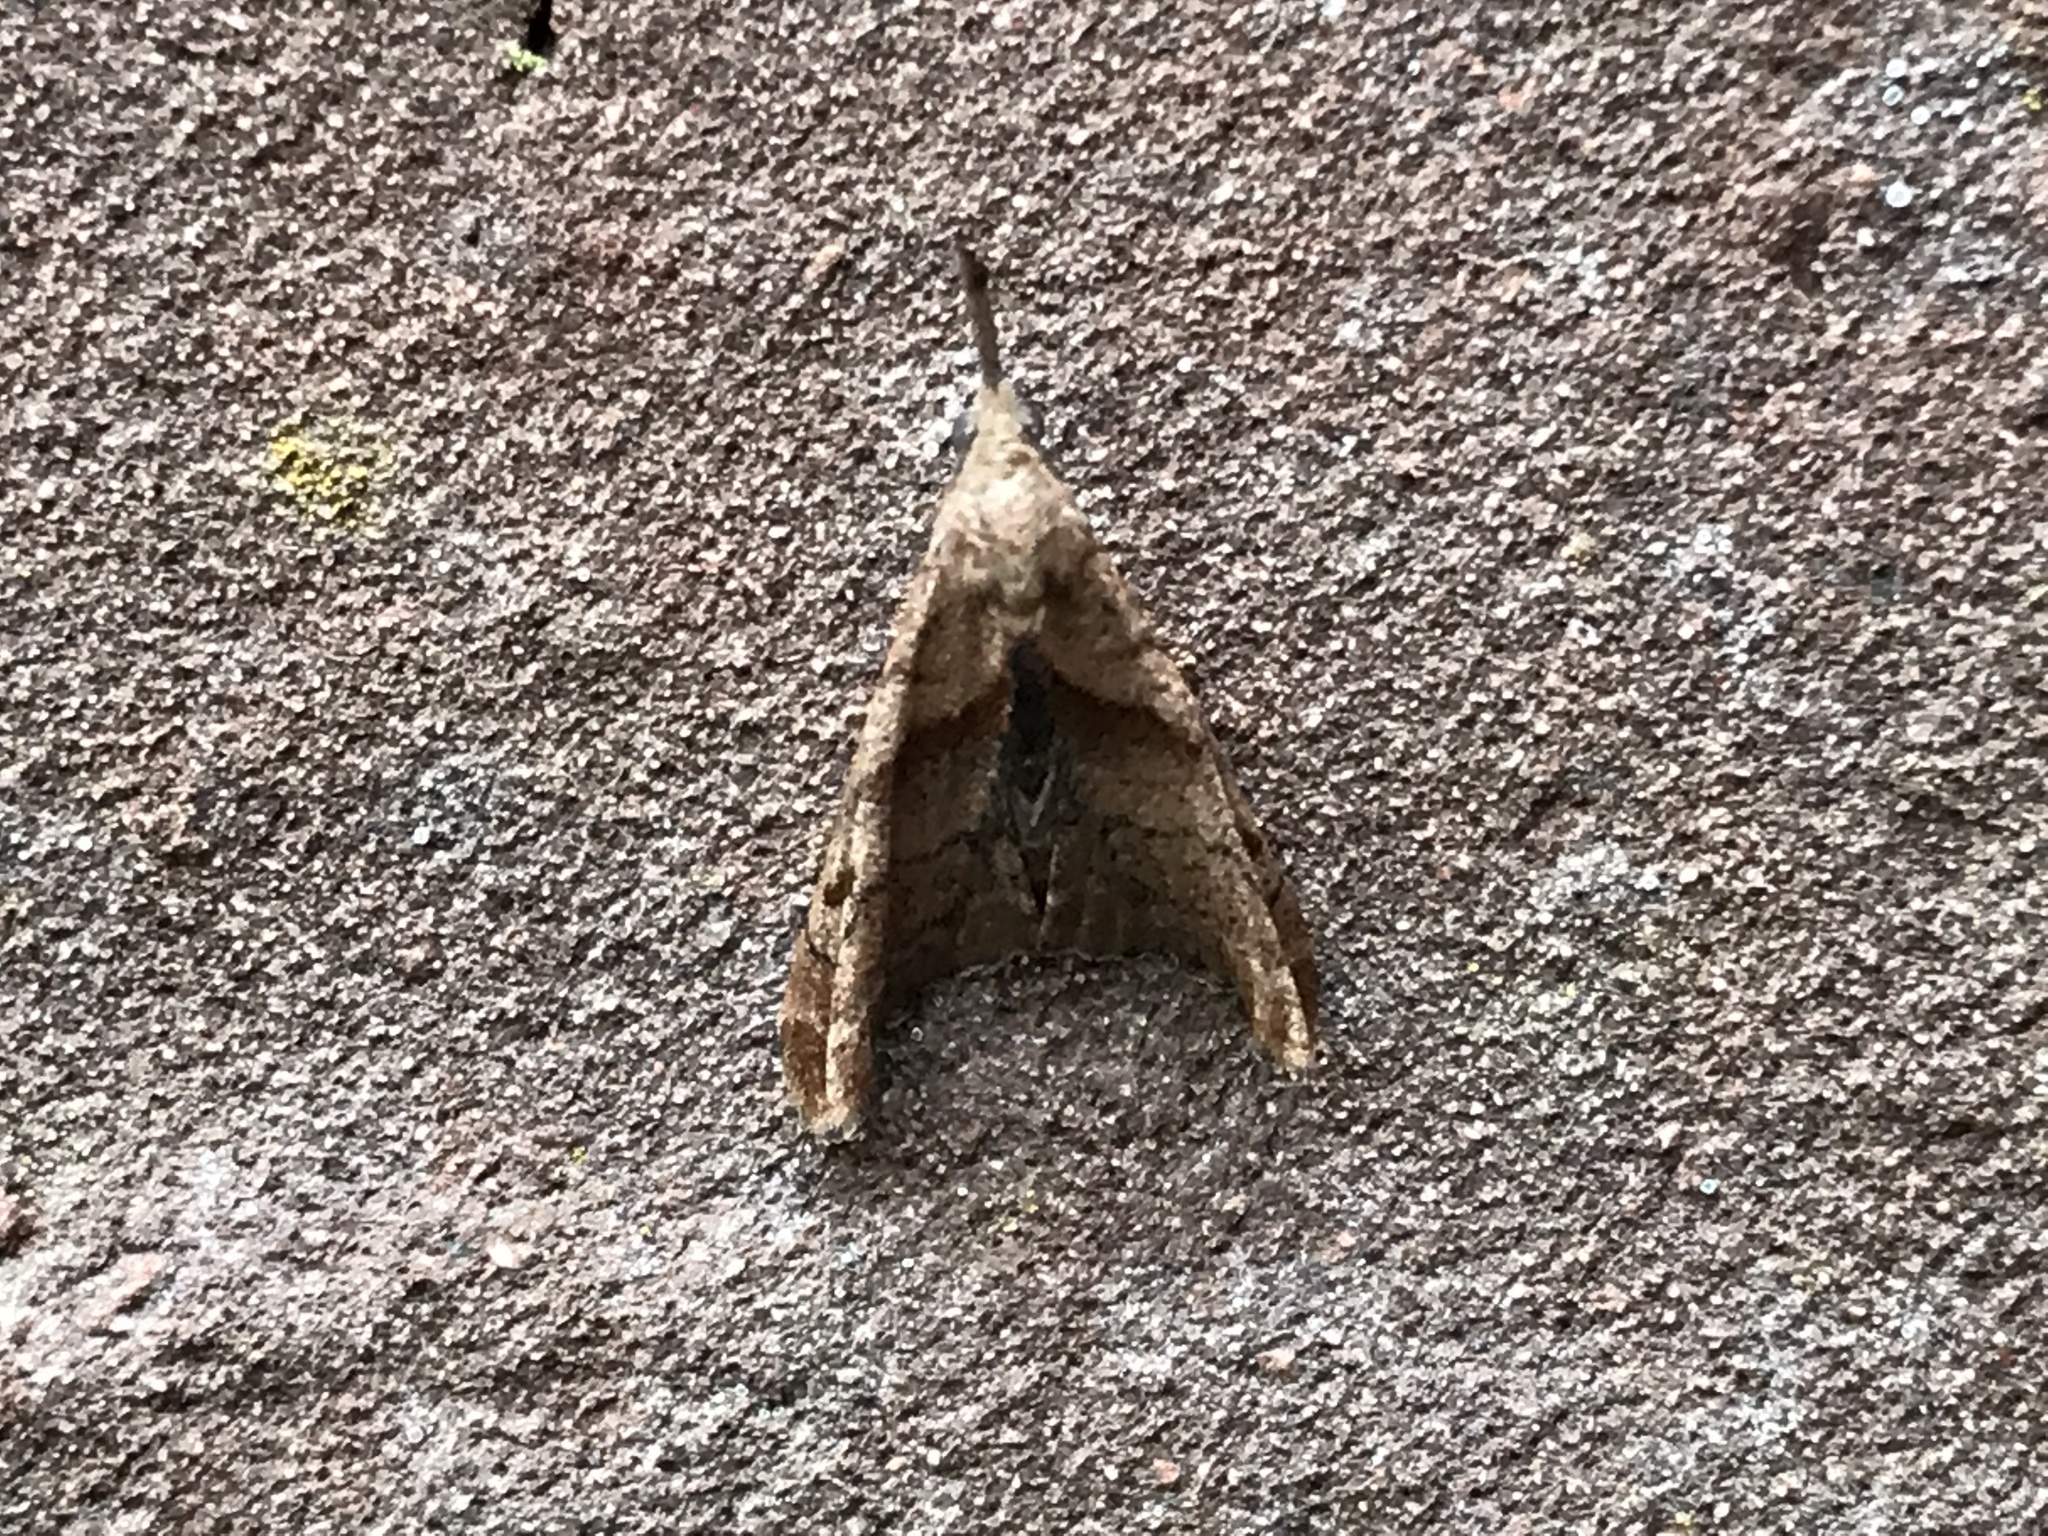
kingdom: Animalia
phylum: Arthropoda
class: Insecta
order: Lepidoptera
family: Erebidae
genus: Palthis
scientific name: Palthis angulalis
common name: Dark-spotted palthis moth
